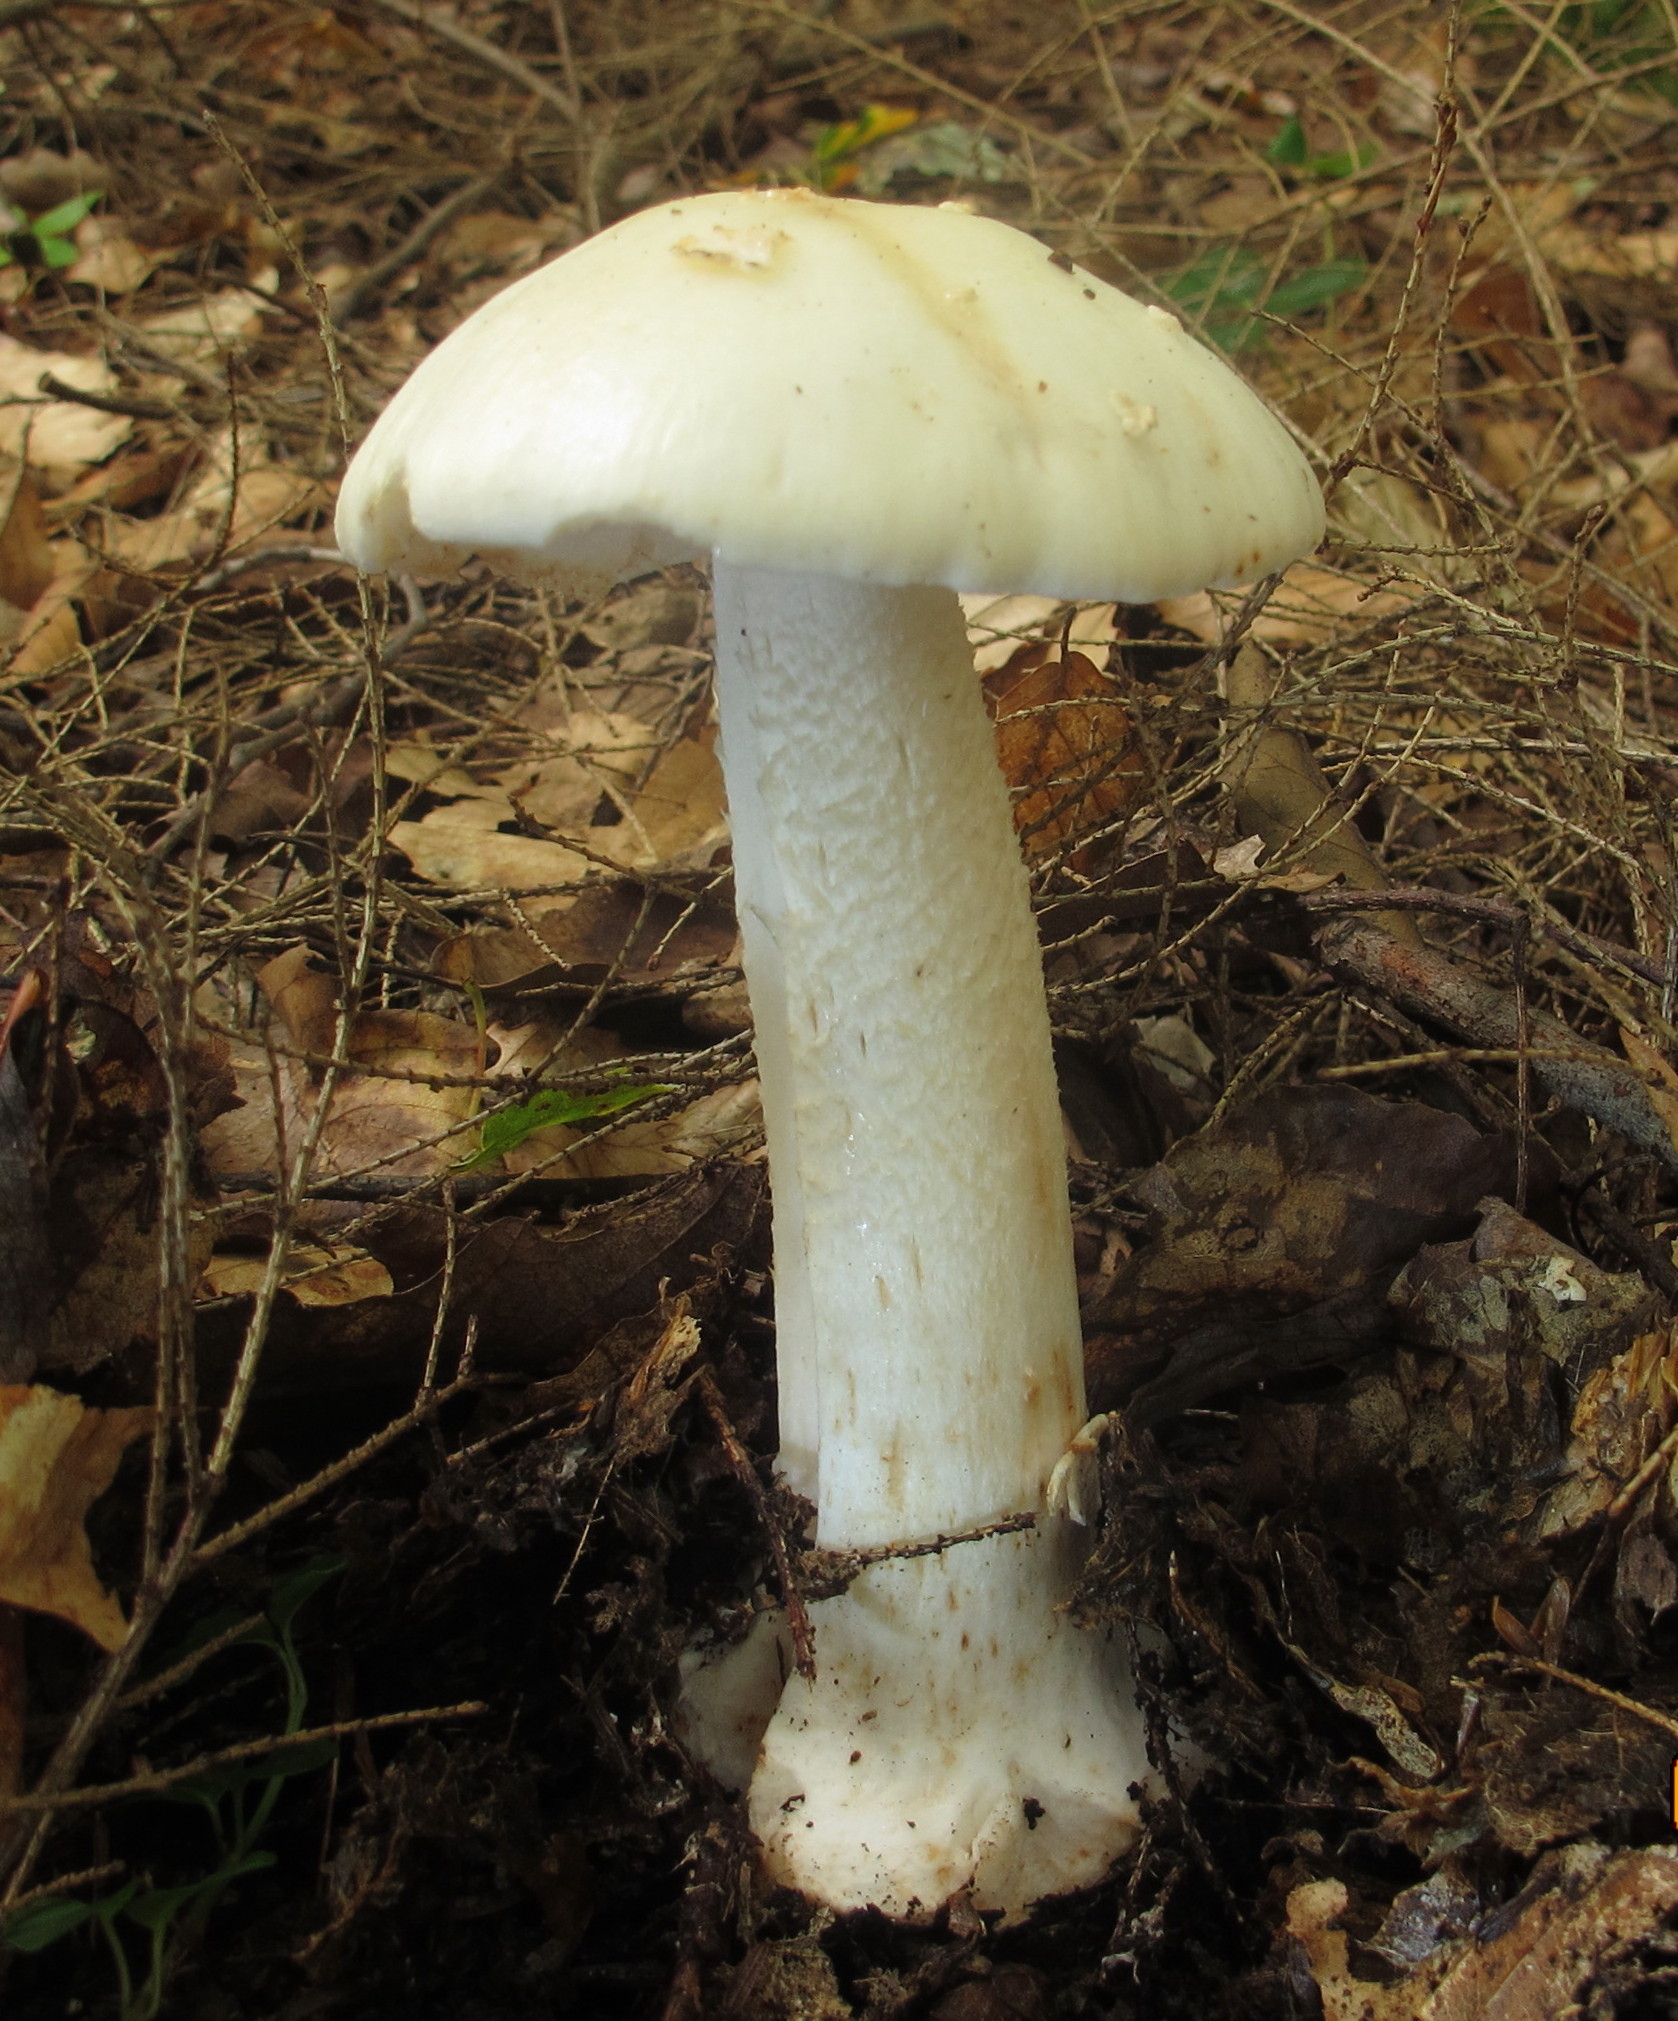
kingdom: Fungi
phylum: Basidiomycota
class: Agaricomycetes
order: Agaricales
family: Amanitaceae
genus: Amanita
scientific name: Amanita brunnescens
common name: Brown american star-footed amanita
